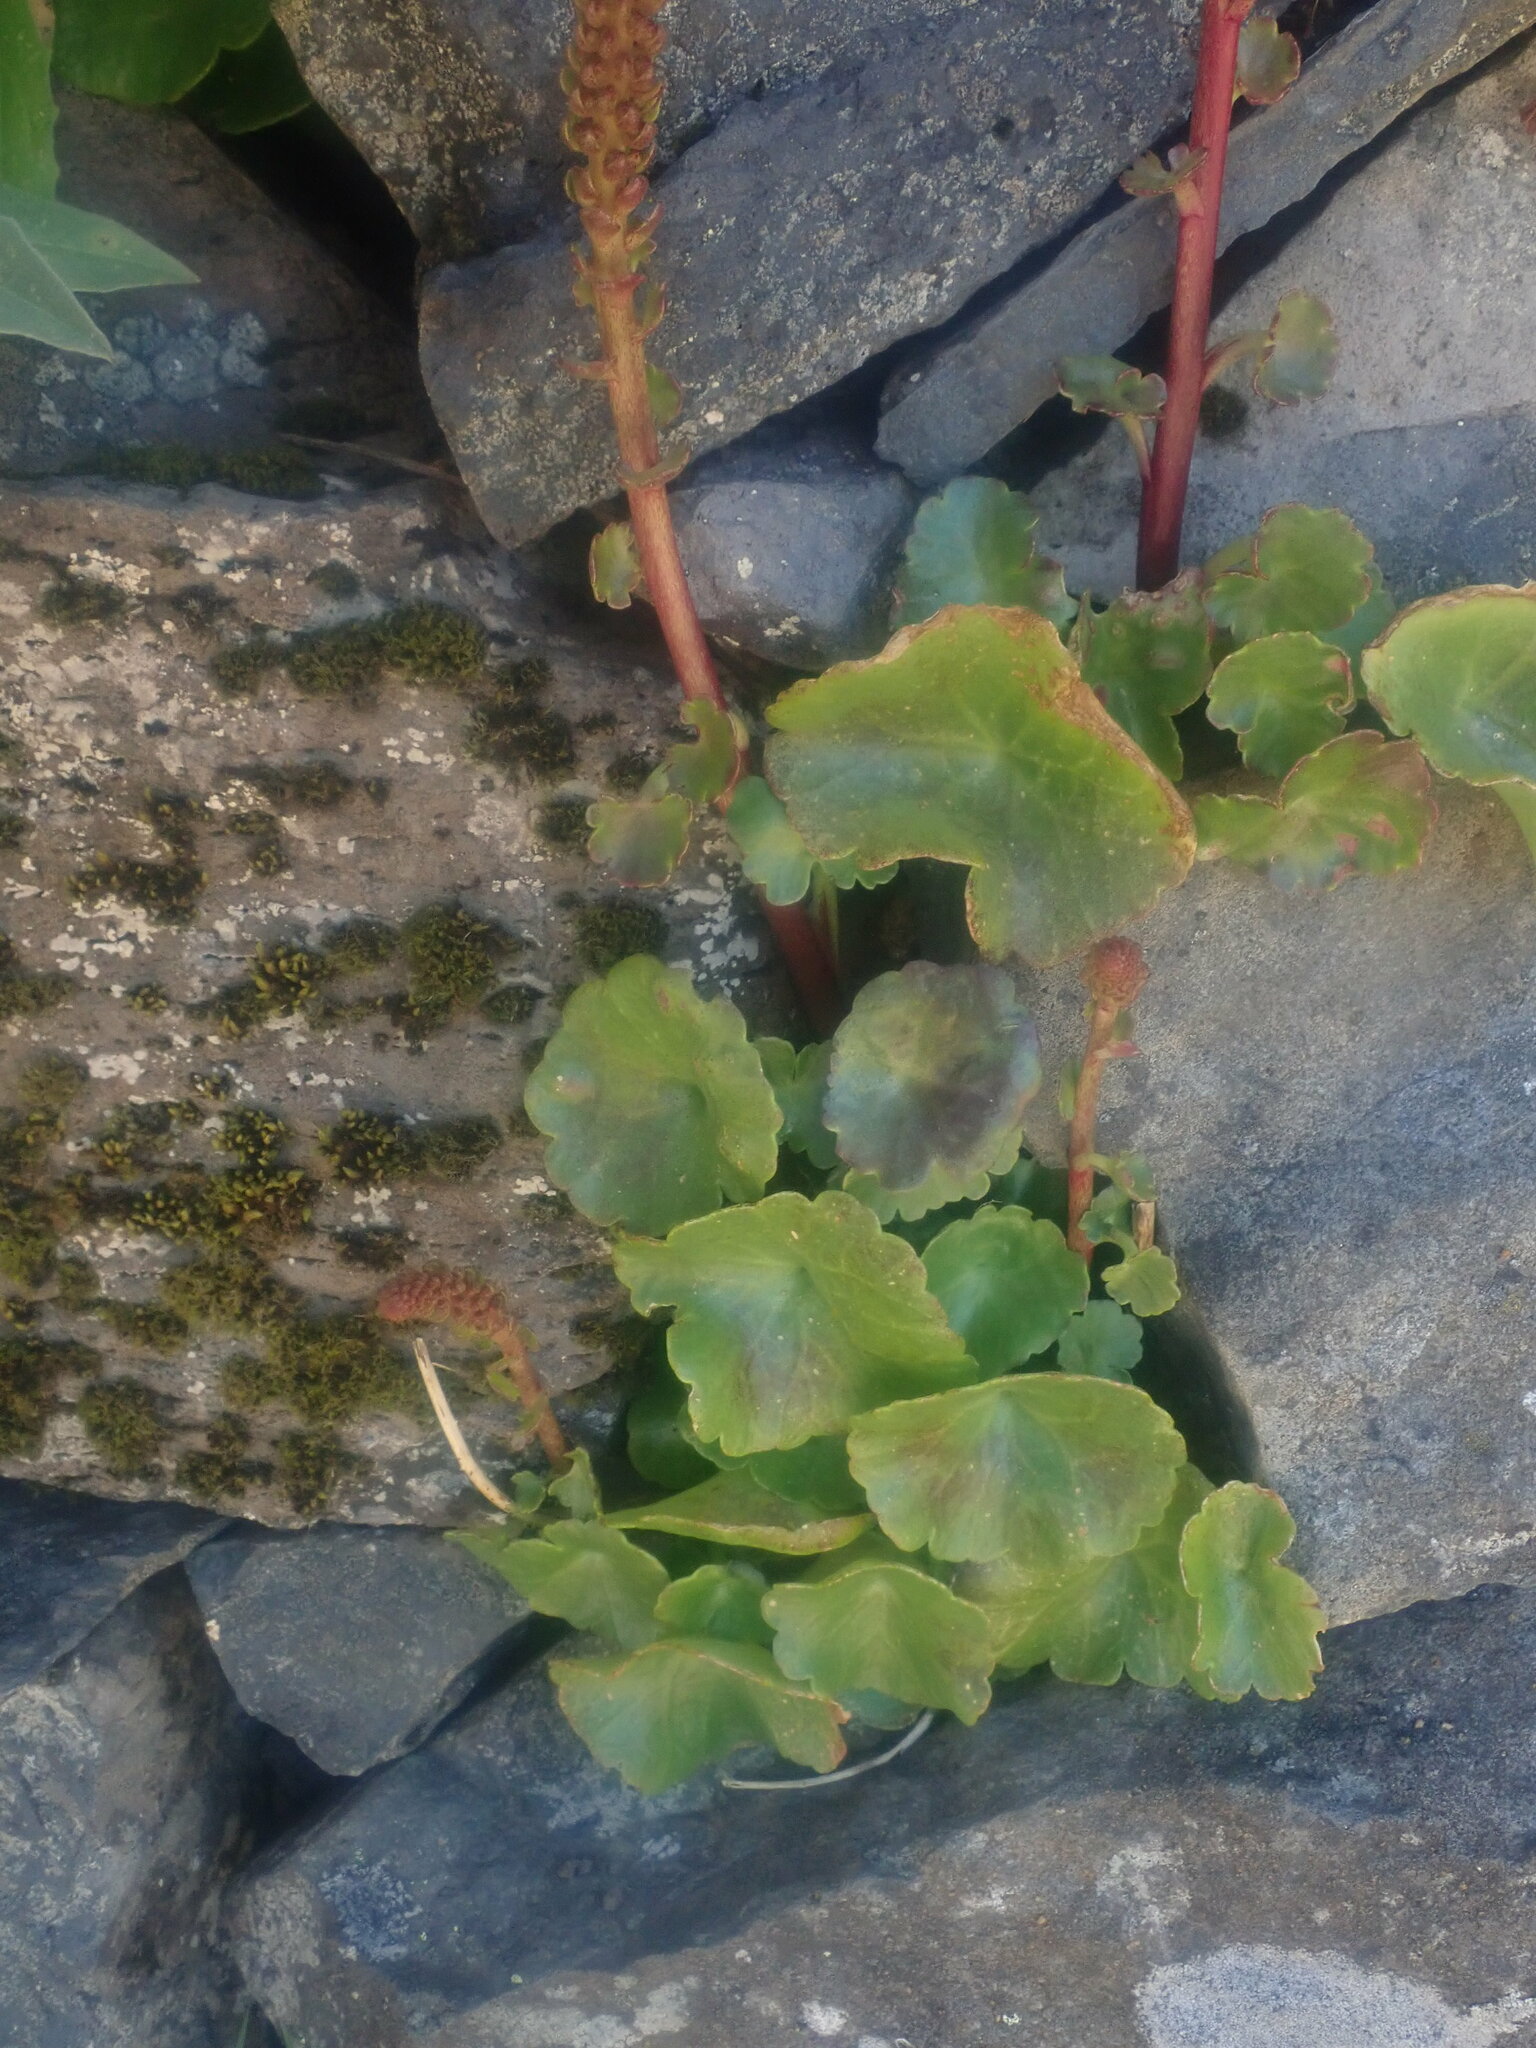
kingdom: Plantae
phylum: Tracheophyta
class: Magnoliopsida
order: Saxifragales
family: Crassulaceae
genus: Umbilicus
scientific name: Umbilicus rupestris
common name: Navelwort
